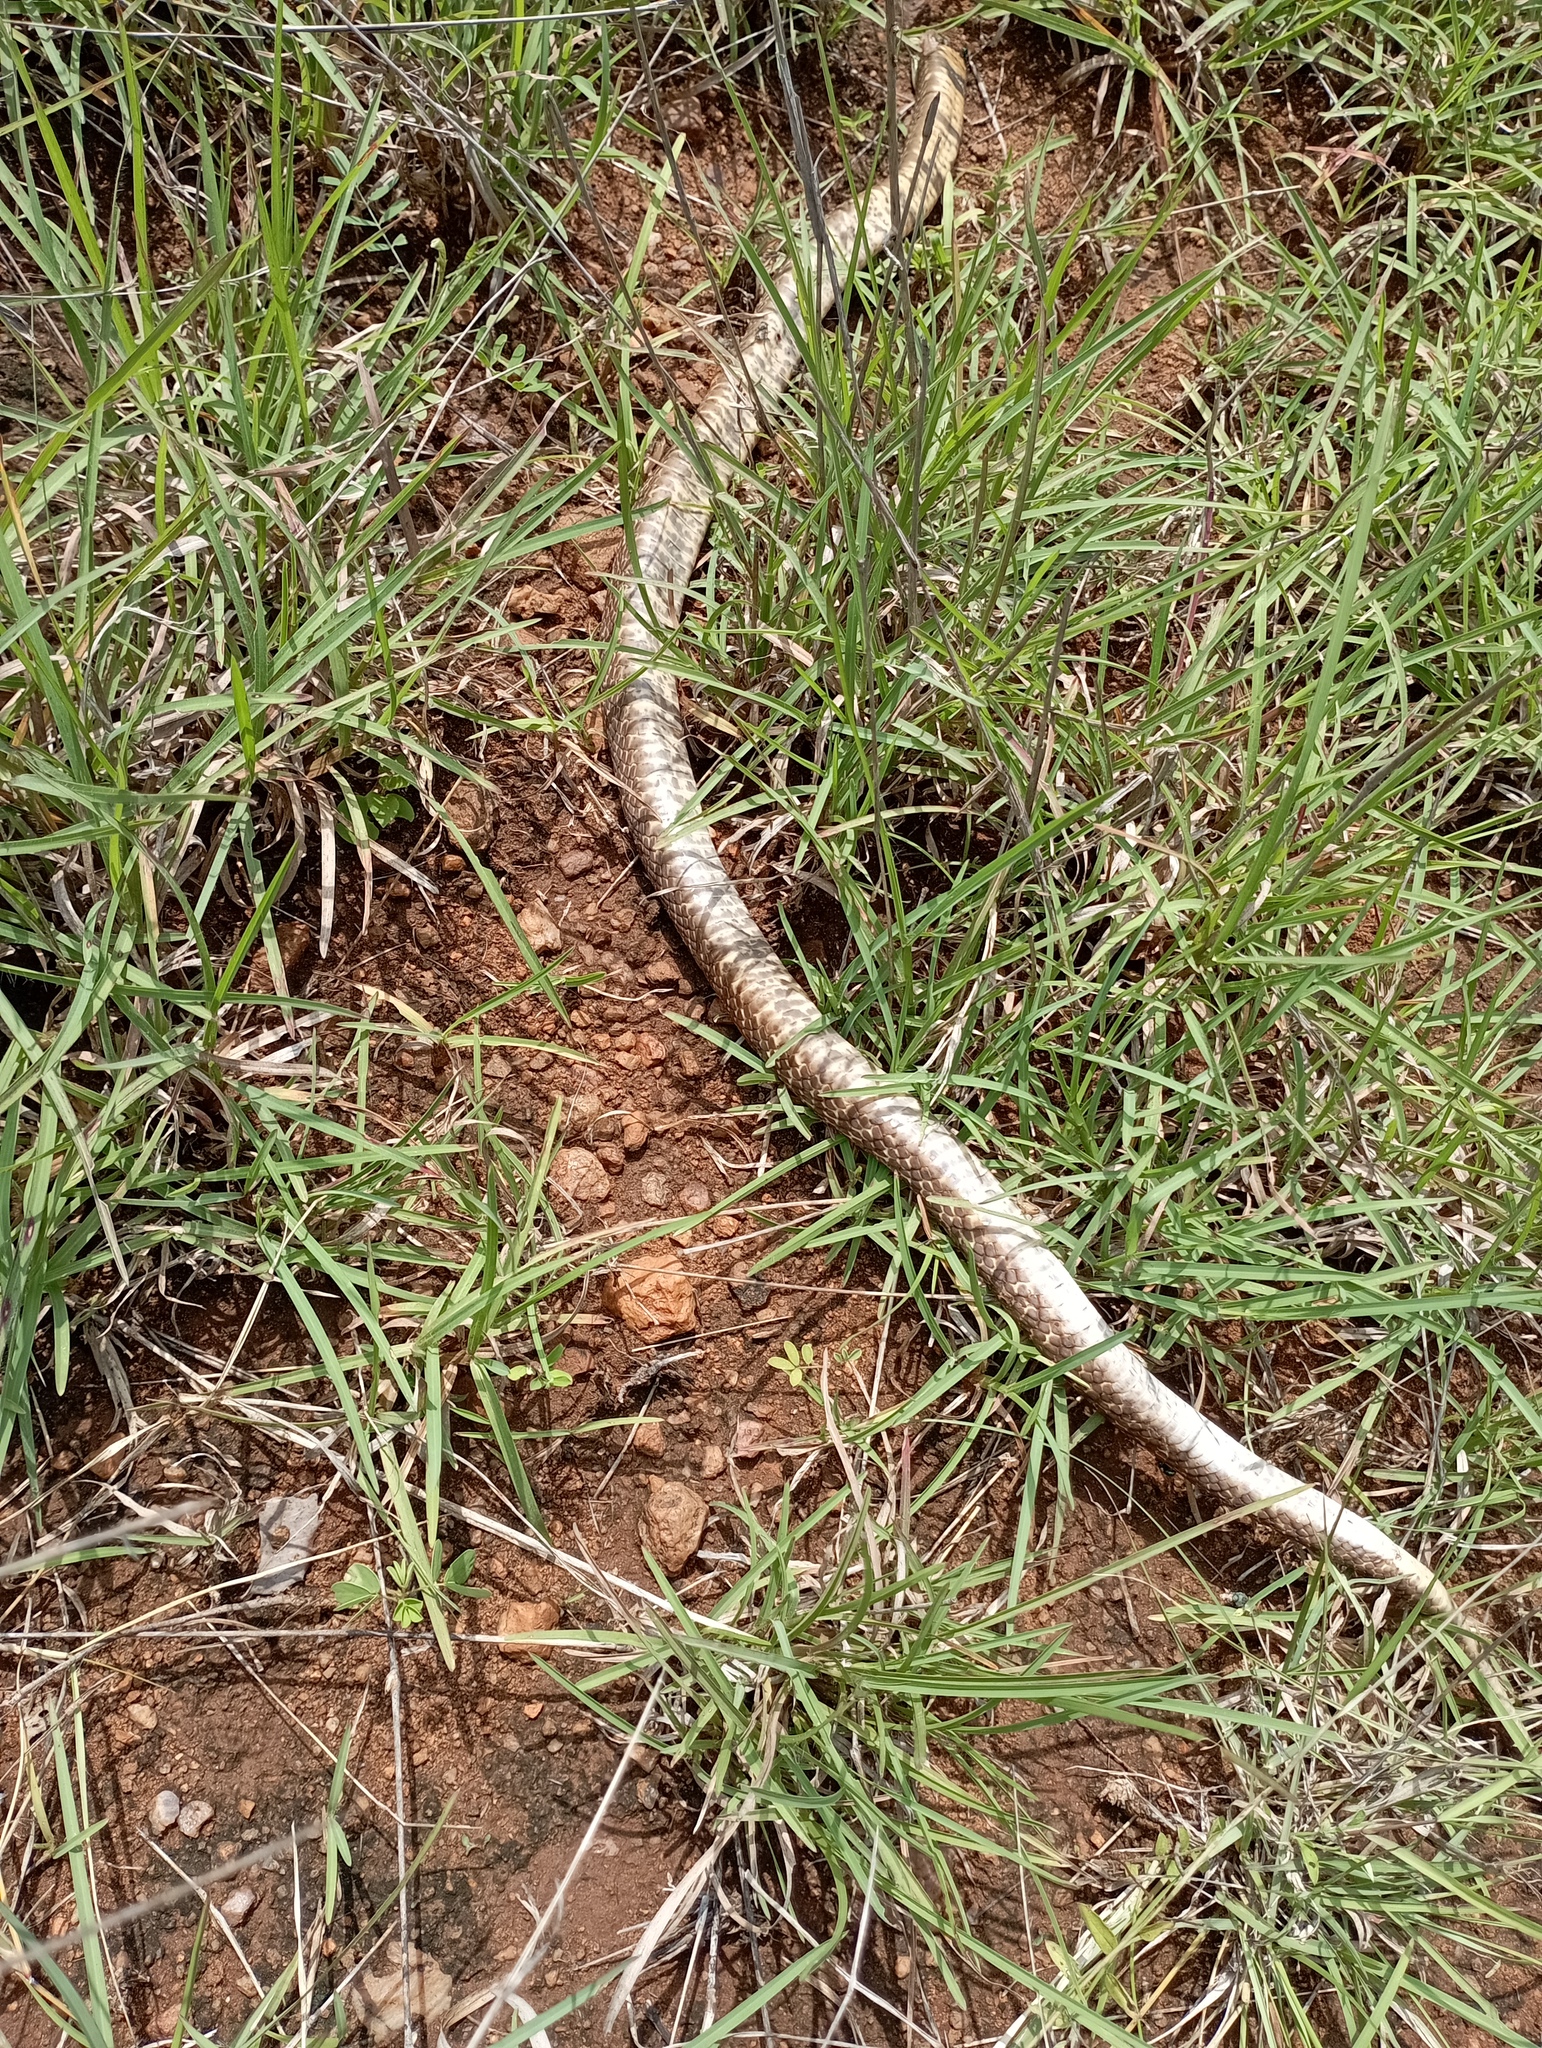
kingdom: Animalia
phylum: Chordata
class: Squamata
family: Colubridae
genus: Ptyas
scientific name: Ptyas mucosa
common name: Oriental ratsnake
